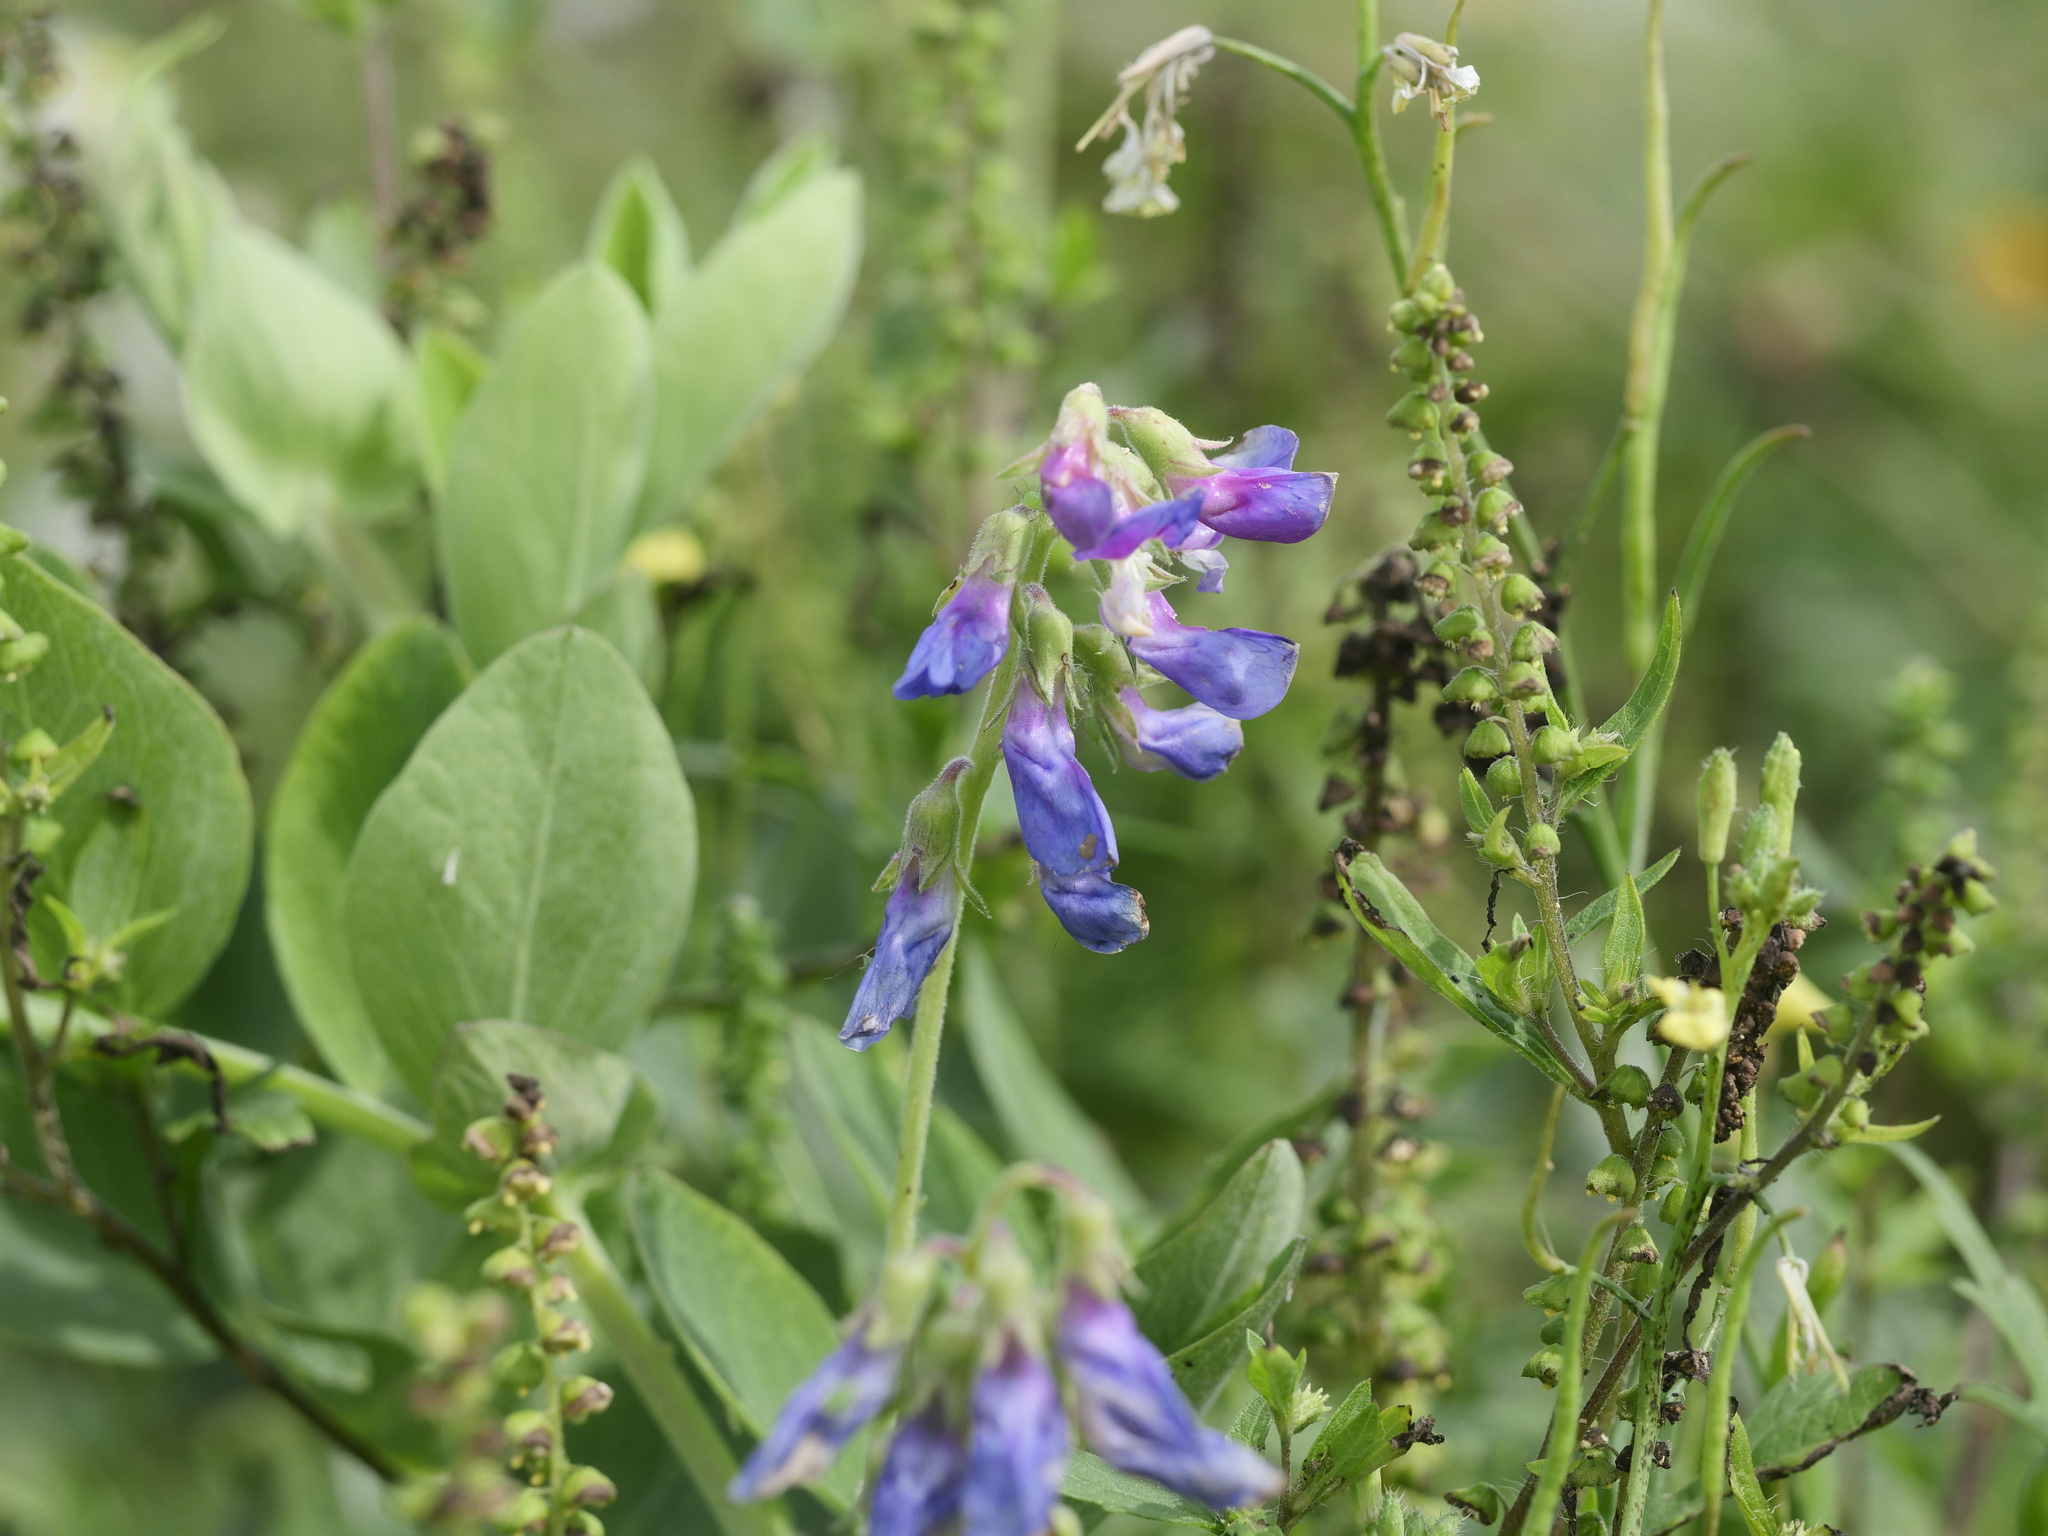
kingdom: Plantae
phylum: Tracheophyta
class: Magnoliopsida
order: Fabales
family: Fabaceae
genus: Lathyrus
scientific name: Lathyrus japonicus
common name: Sea pea
